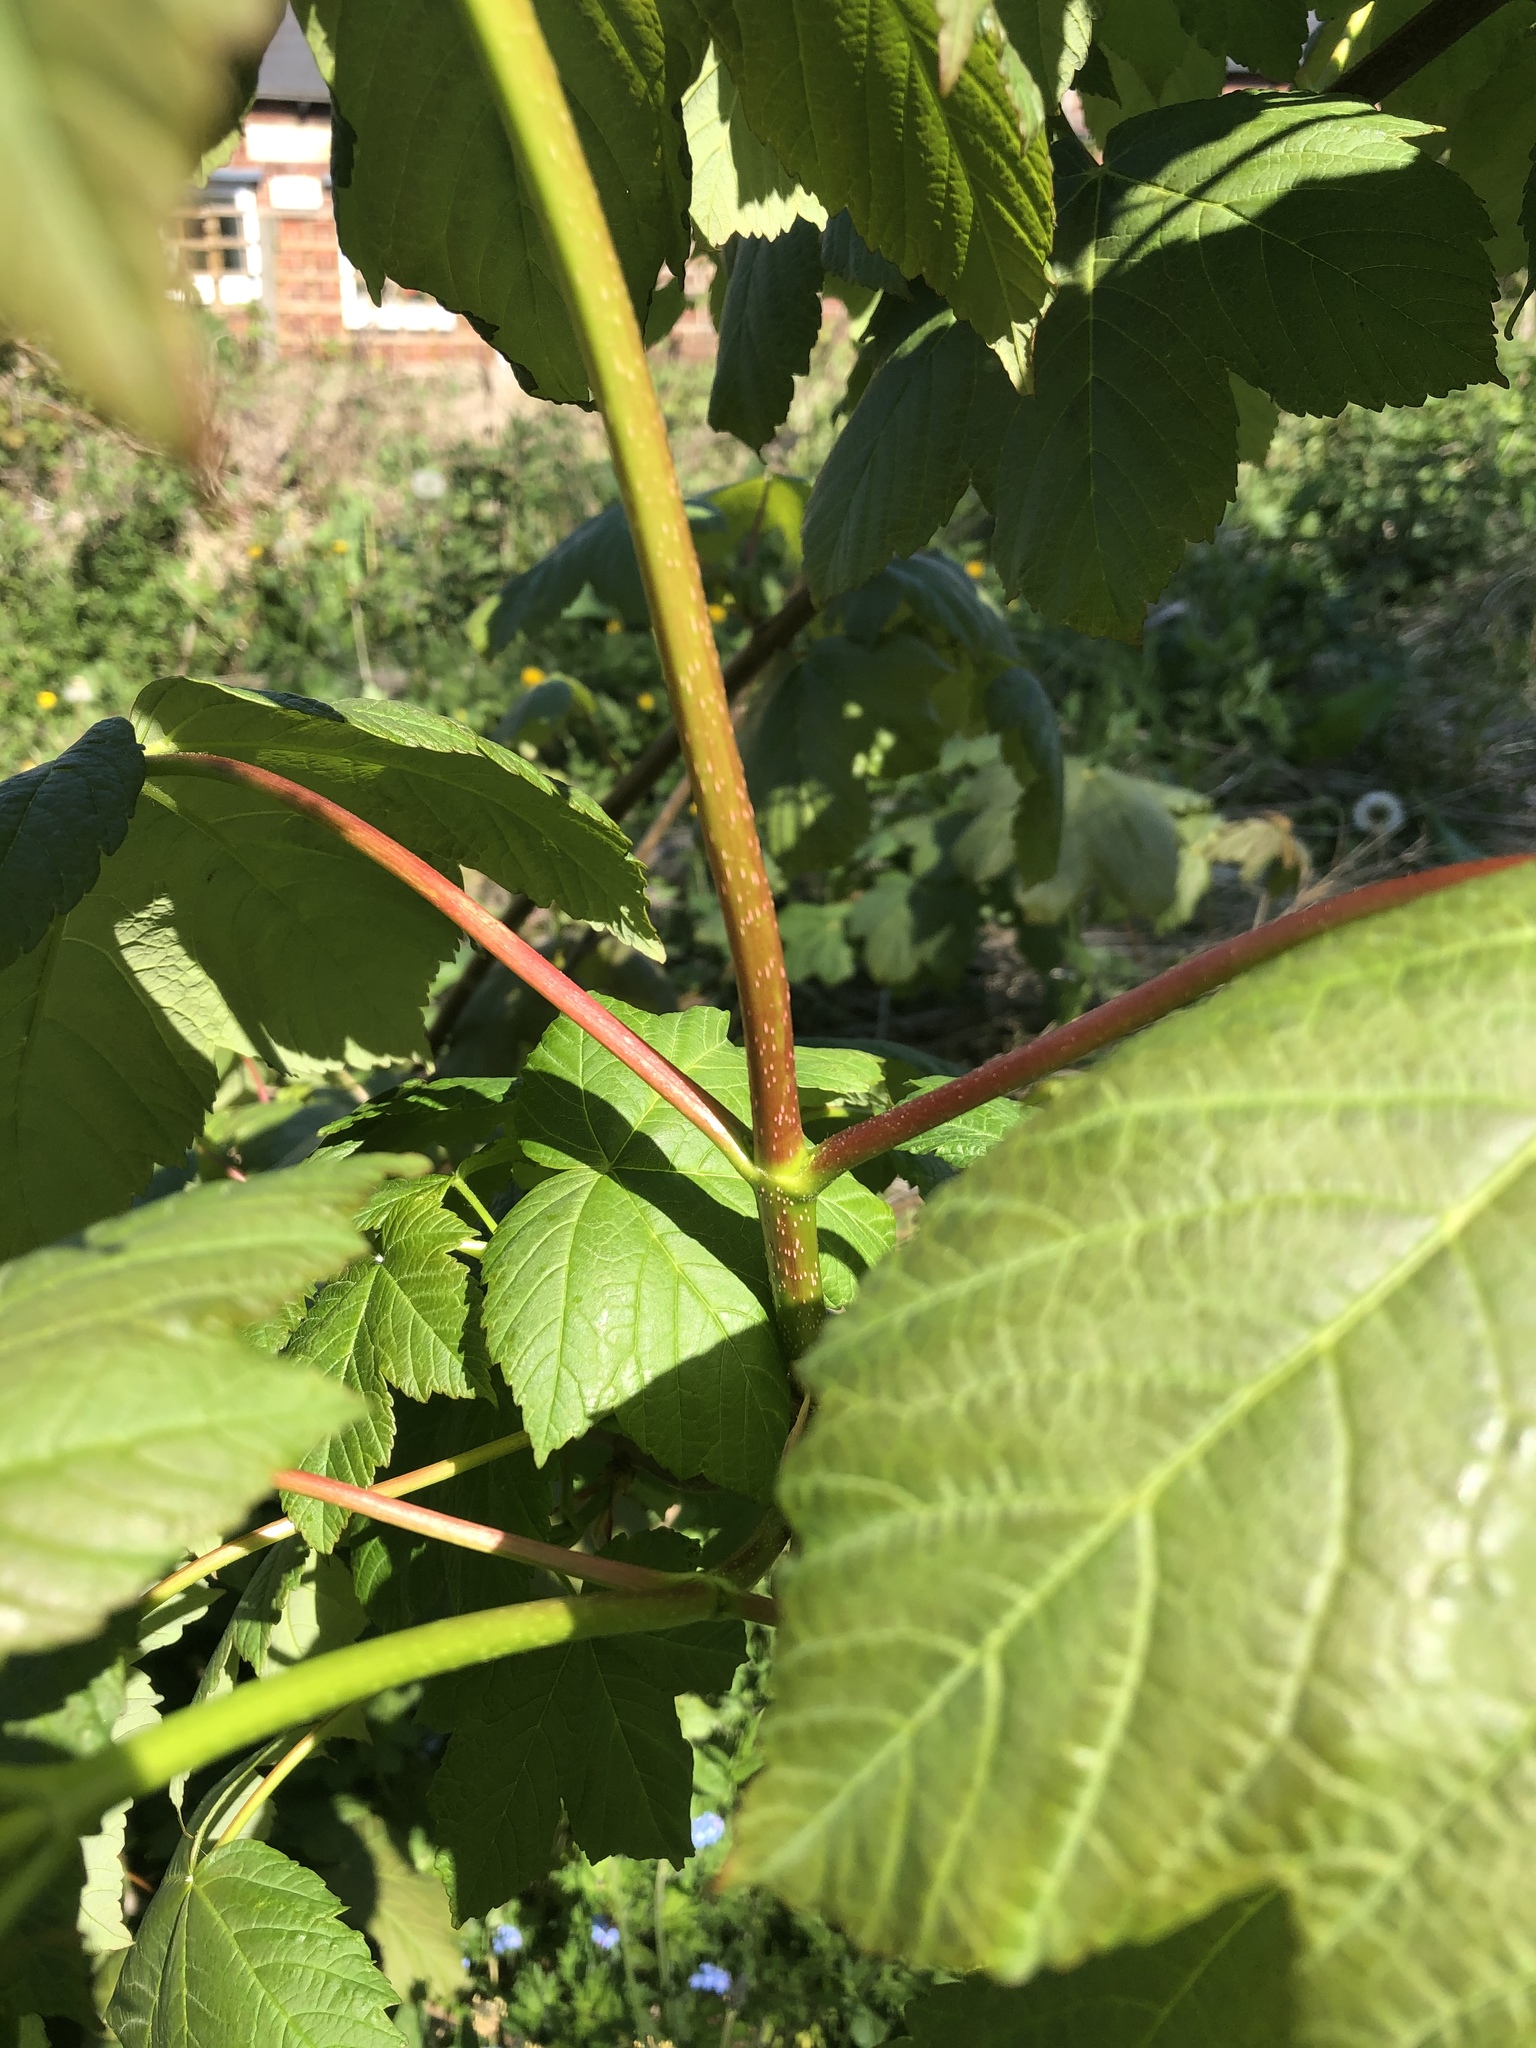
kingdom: Plantae
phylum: Tracheophyta
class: Magnoliopsida
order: Sapindales
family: Sapindaceae
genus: Acer
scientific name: Acer pseudoplatanus
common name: Sycamore
